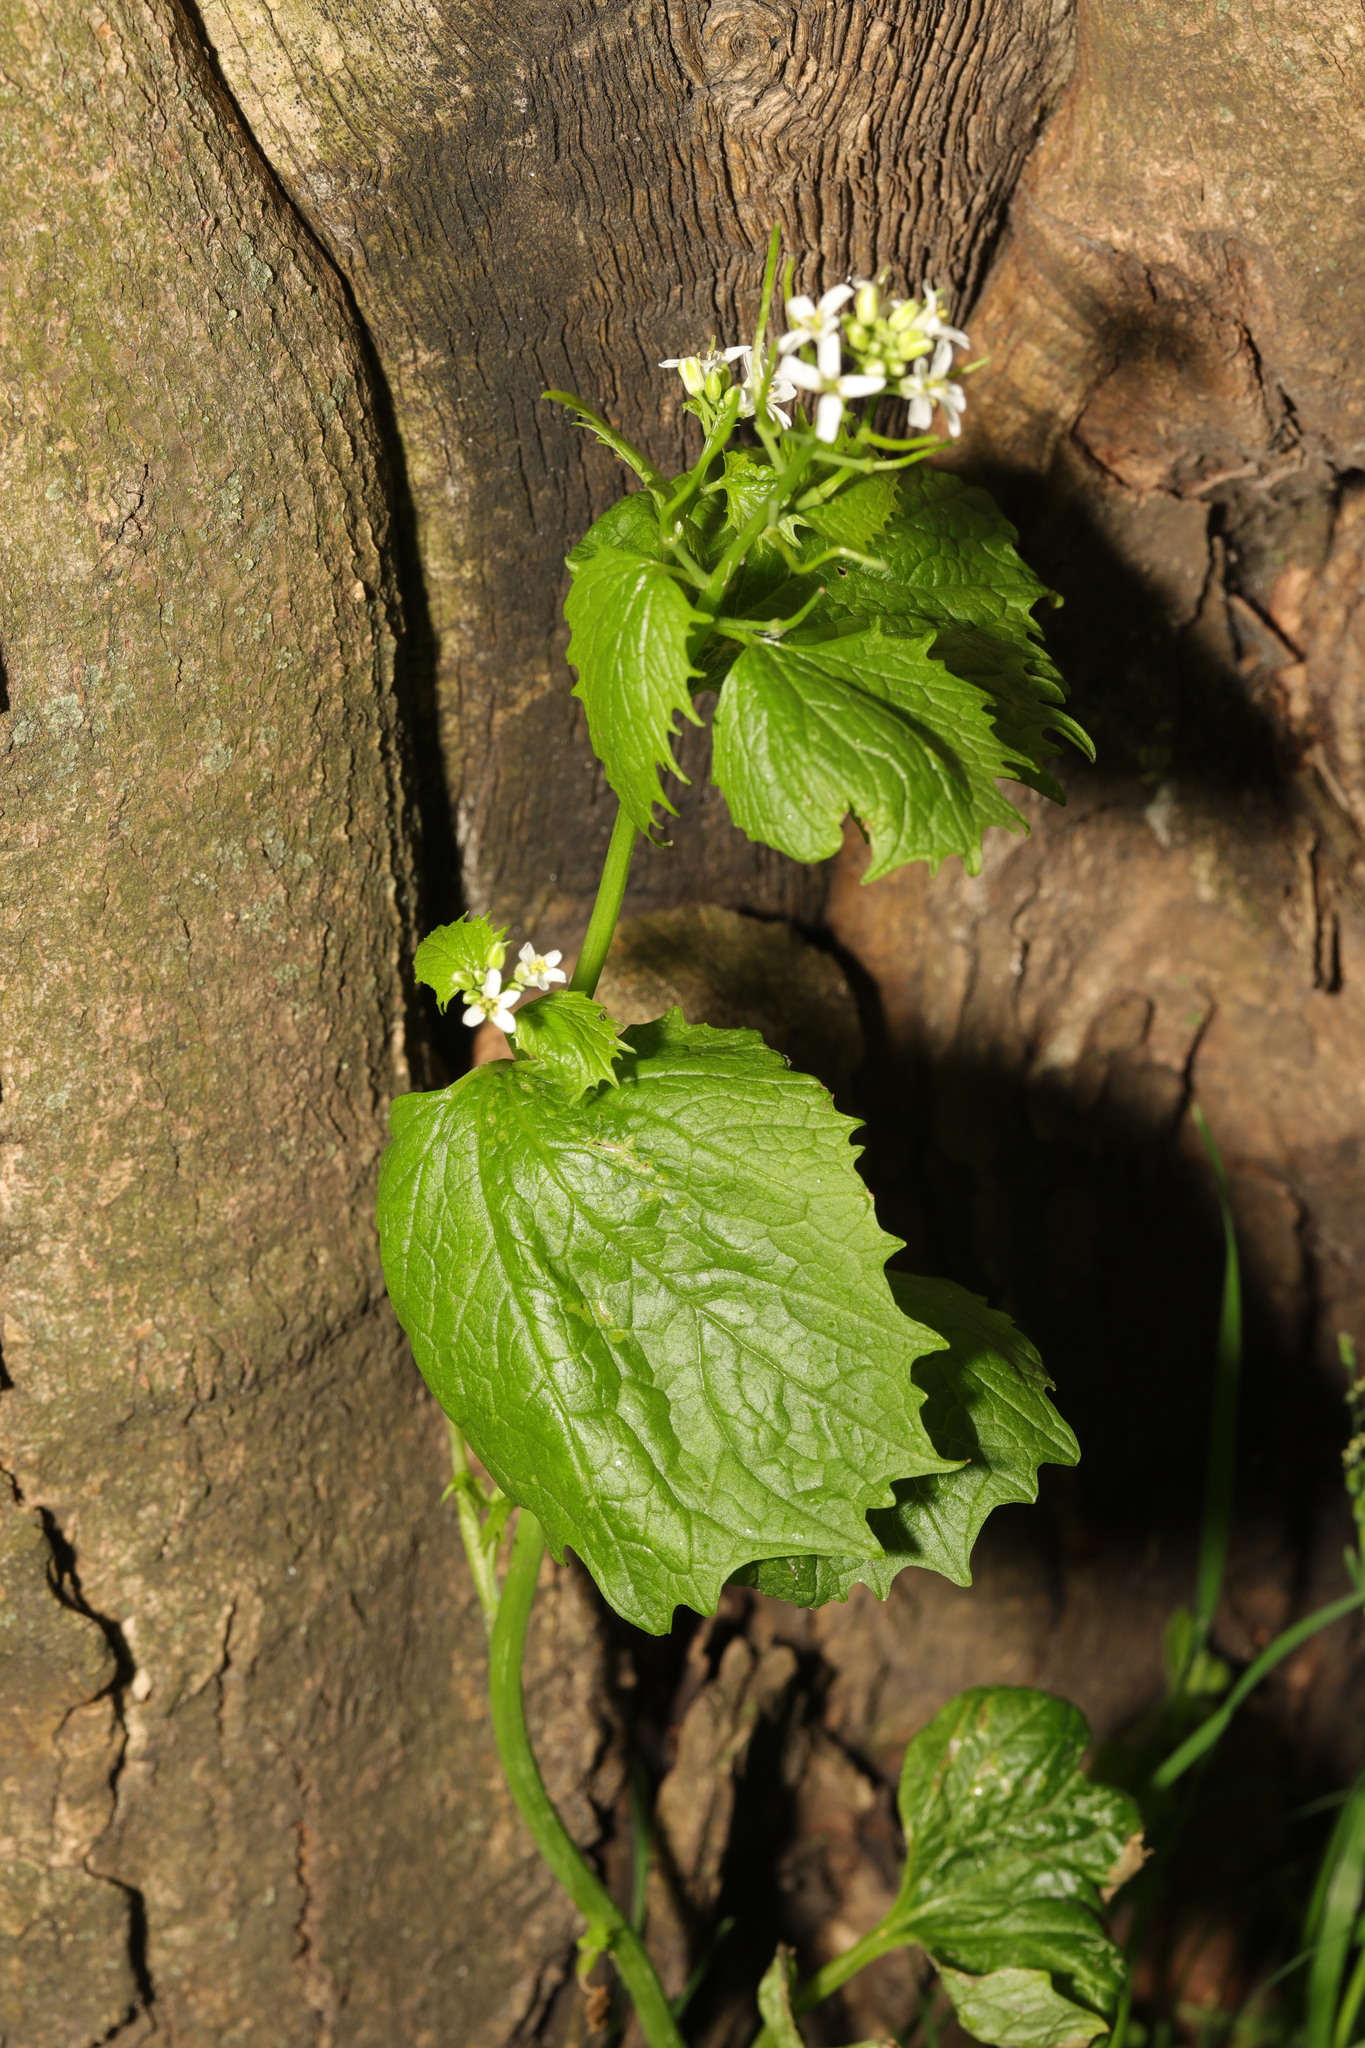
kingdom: Plantae
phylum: Tracheophyta
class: Magnoliopsida
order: Brassicales
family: Brassicaceae
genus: Alliaria
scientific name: Alliaria petiolata
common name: Garlic mustard
